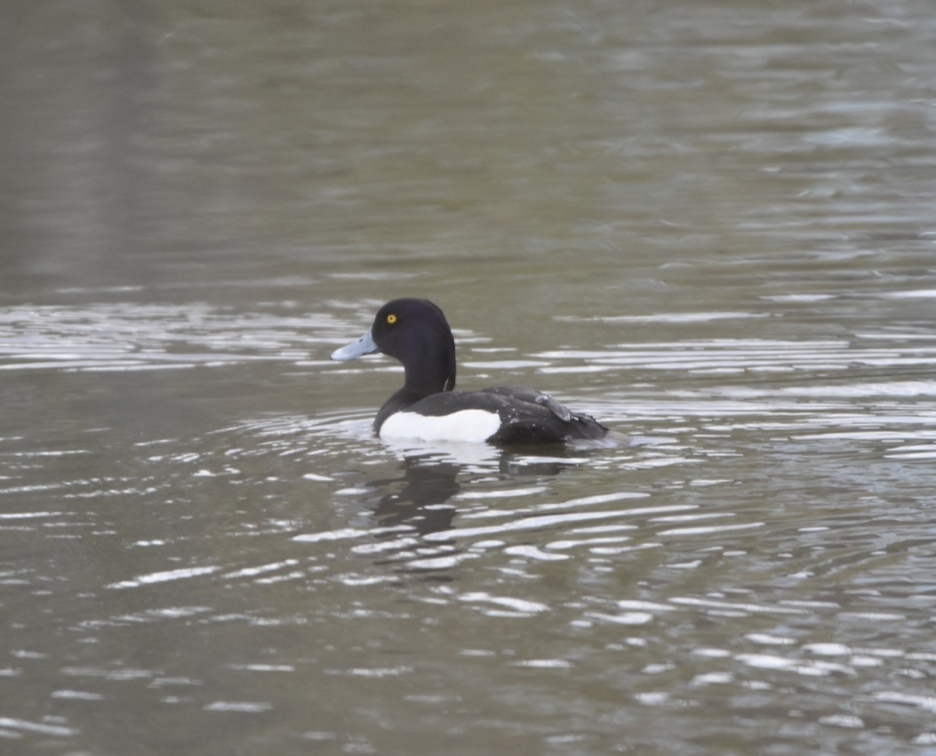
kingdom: Animalia
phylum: Chordata
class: Aves
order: Anseriformes
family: Anatidae
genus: Aythya
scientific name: Aythya fuligula
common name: Tufted duck
